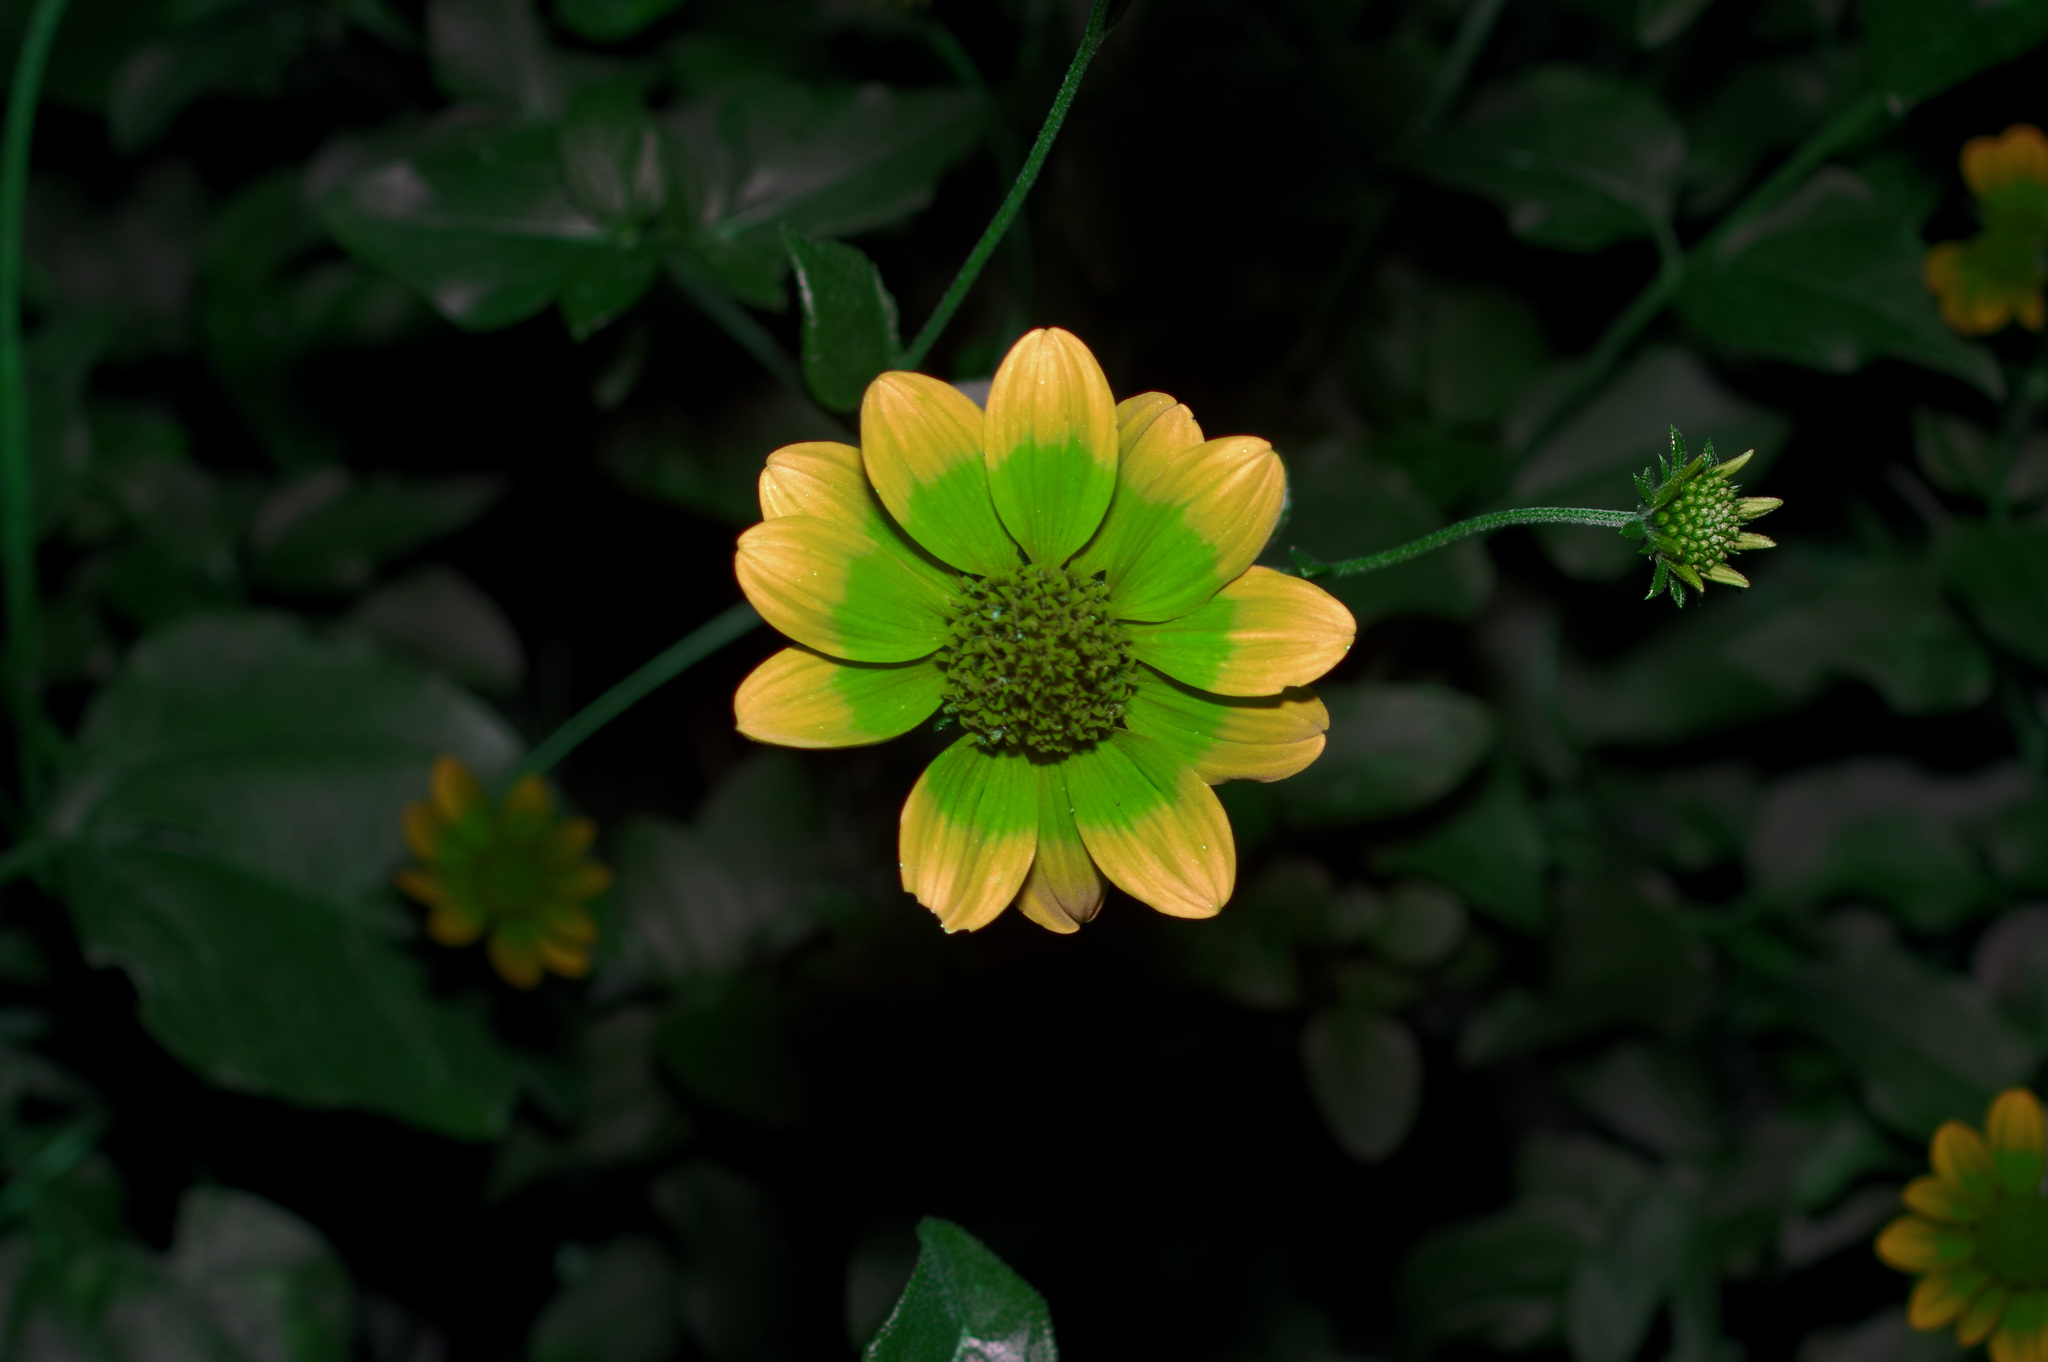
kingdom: Plantae
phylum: Tracheophyta
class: Magnoliopsida
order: Asterales
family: Asteraceae
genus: Viguiera
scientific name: Viguiera dentata
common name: Toothleaf
